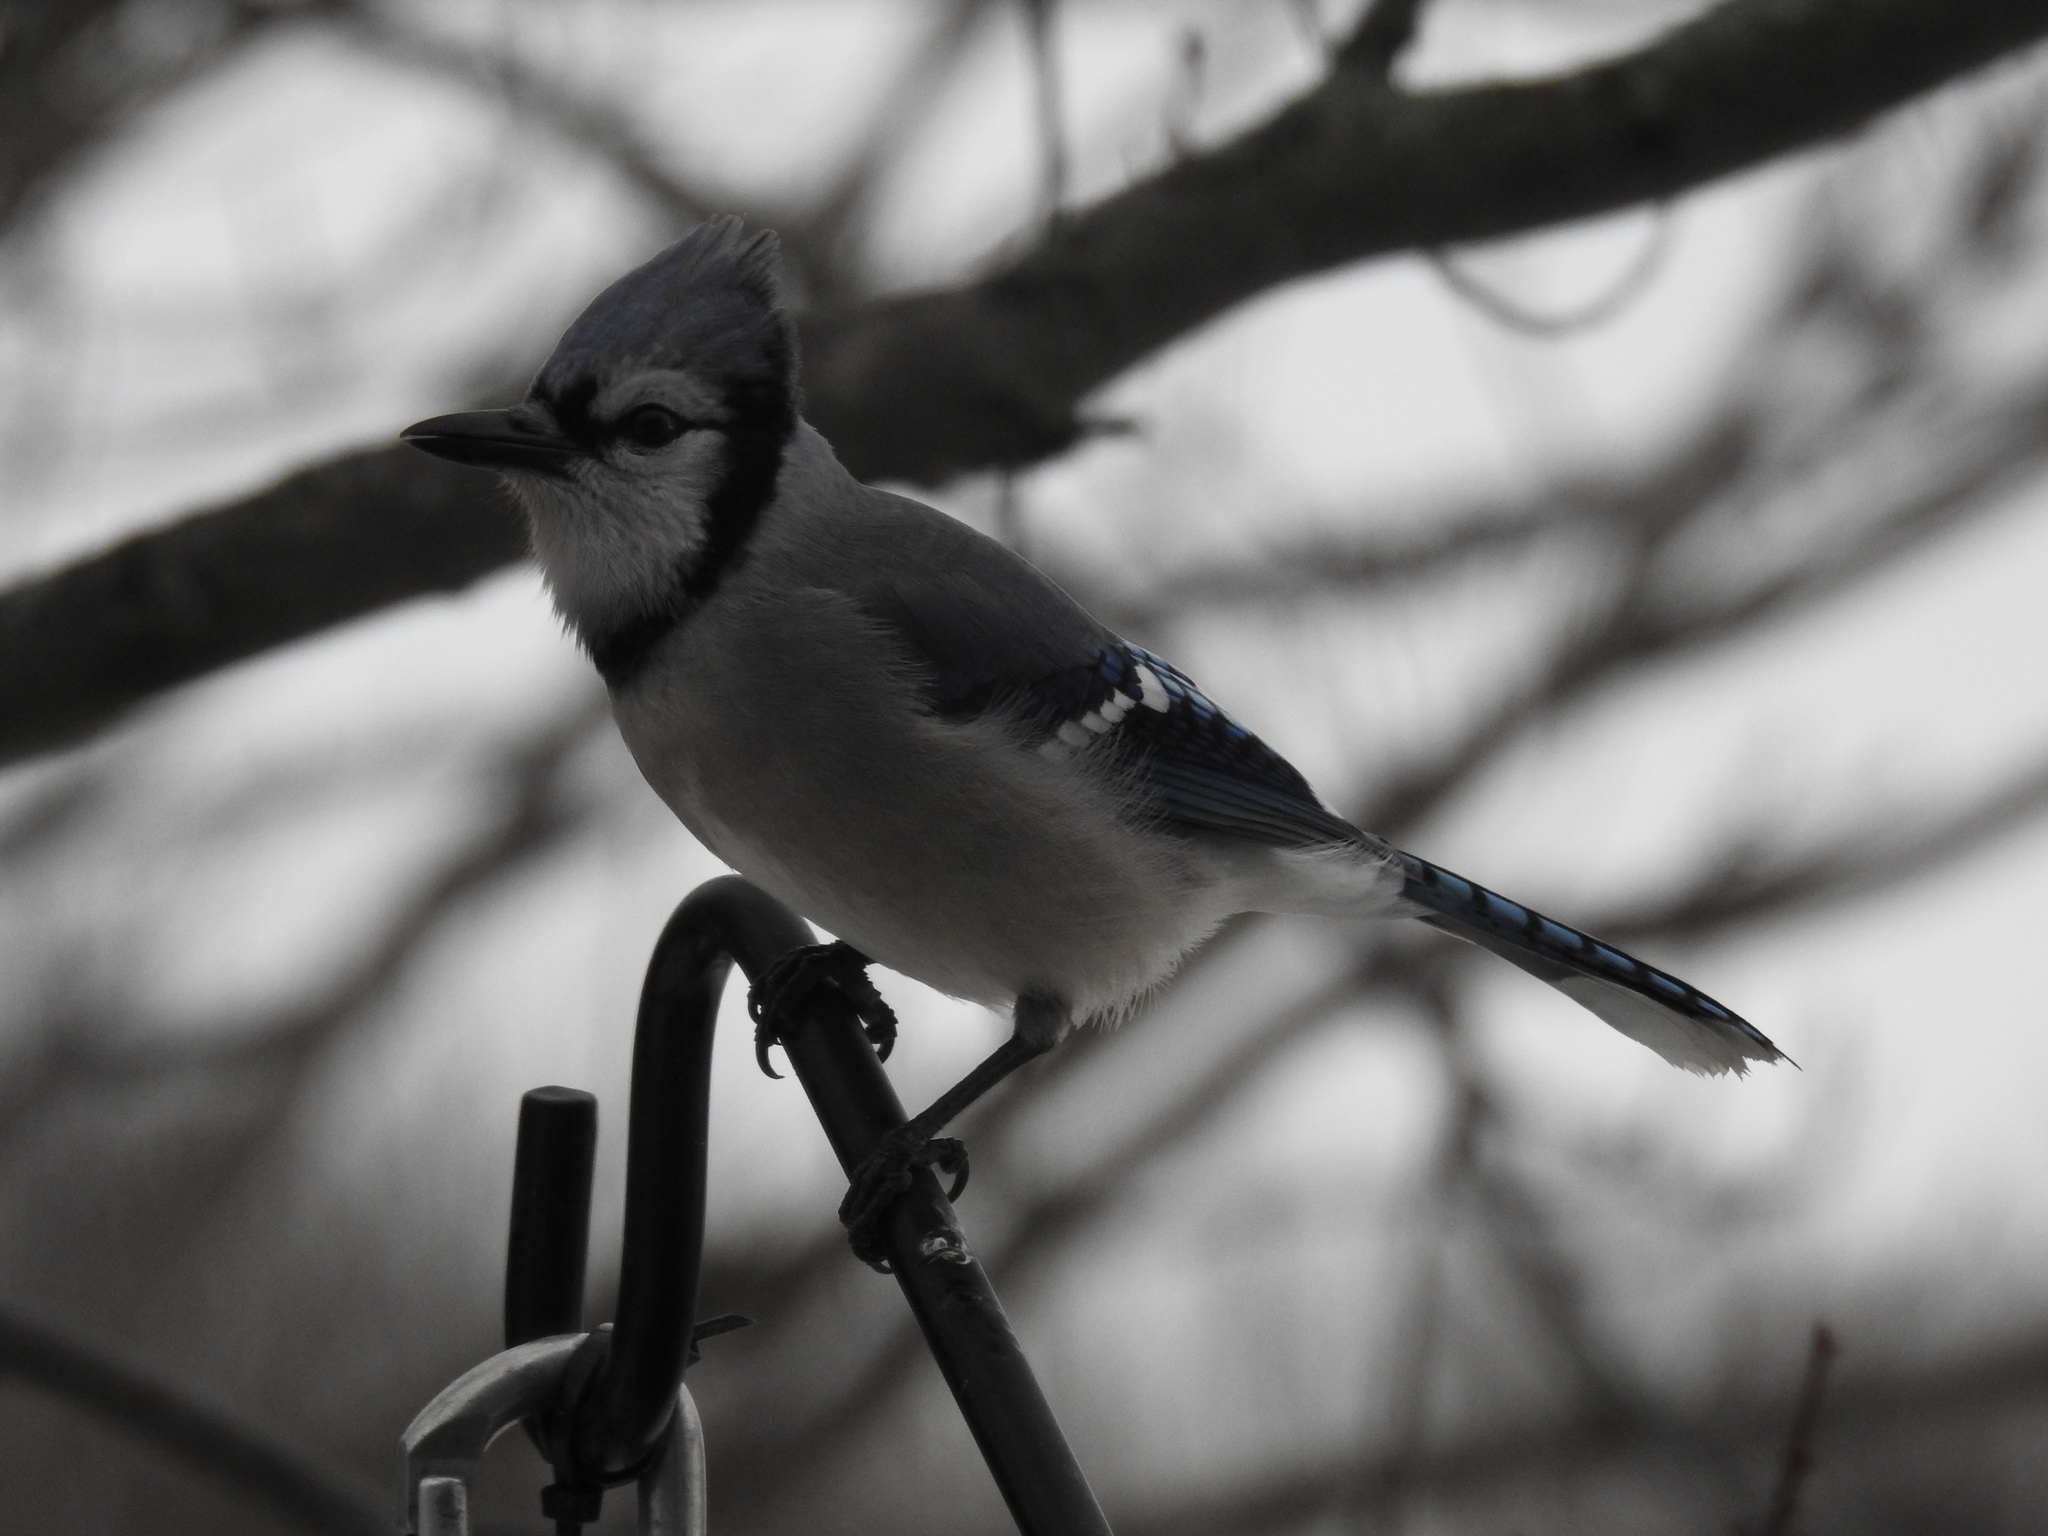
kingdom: Animalia
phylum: Chordata
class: Aves
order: Passeriformes
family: Corvidae
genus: Cyanocitta
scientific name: Cyanocitta cristata
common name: Blue jay
